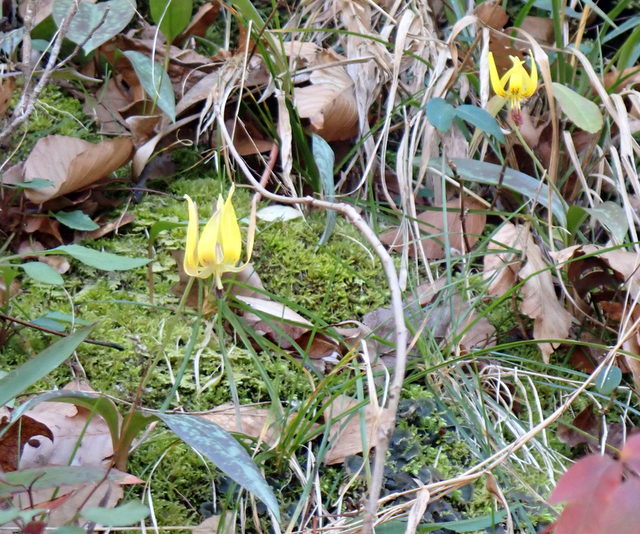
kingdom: Plantae
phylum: Tracheophyta
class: Liliopsida
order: Liliales
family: Liliaceae
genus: Erythronium
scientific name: Erythronium umbilicatum
